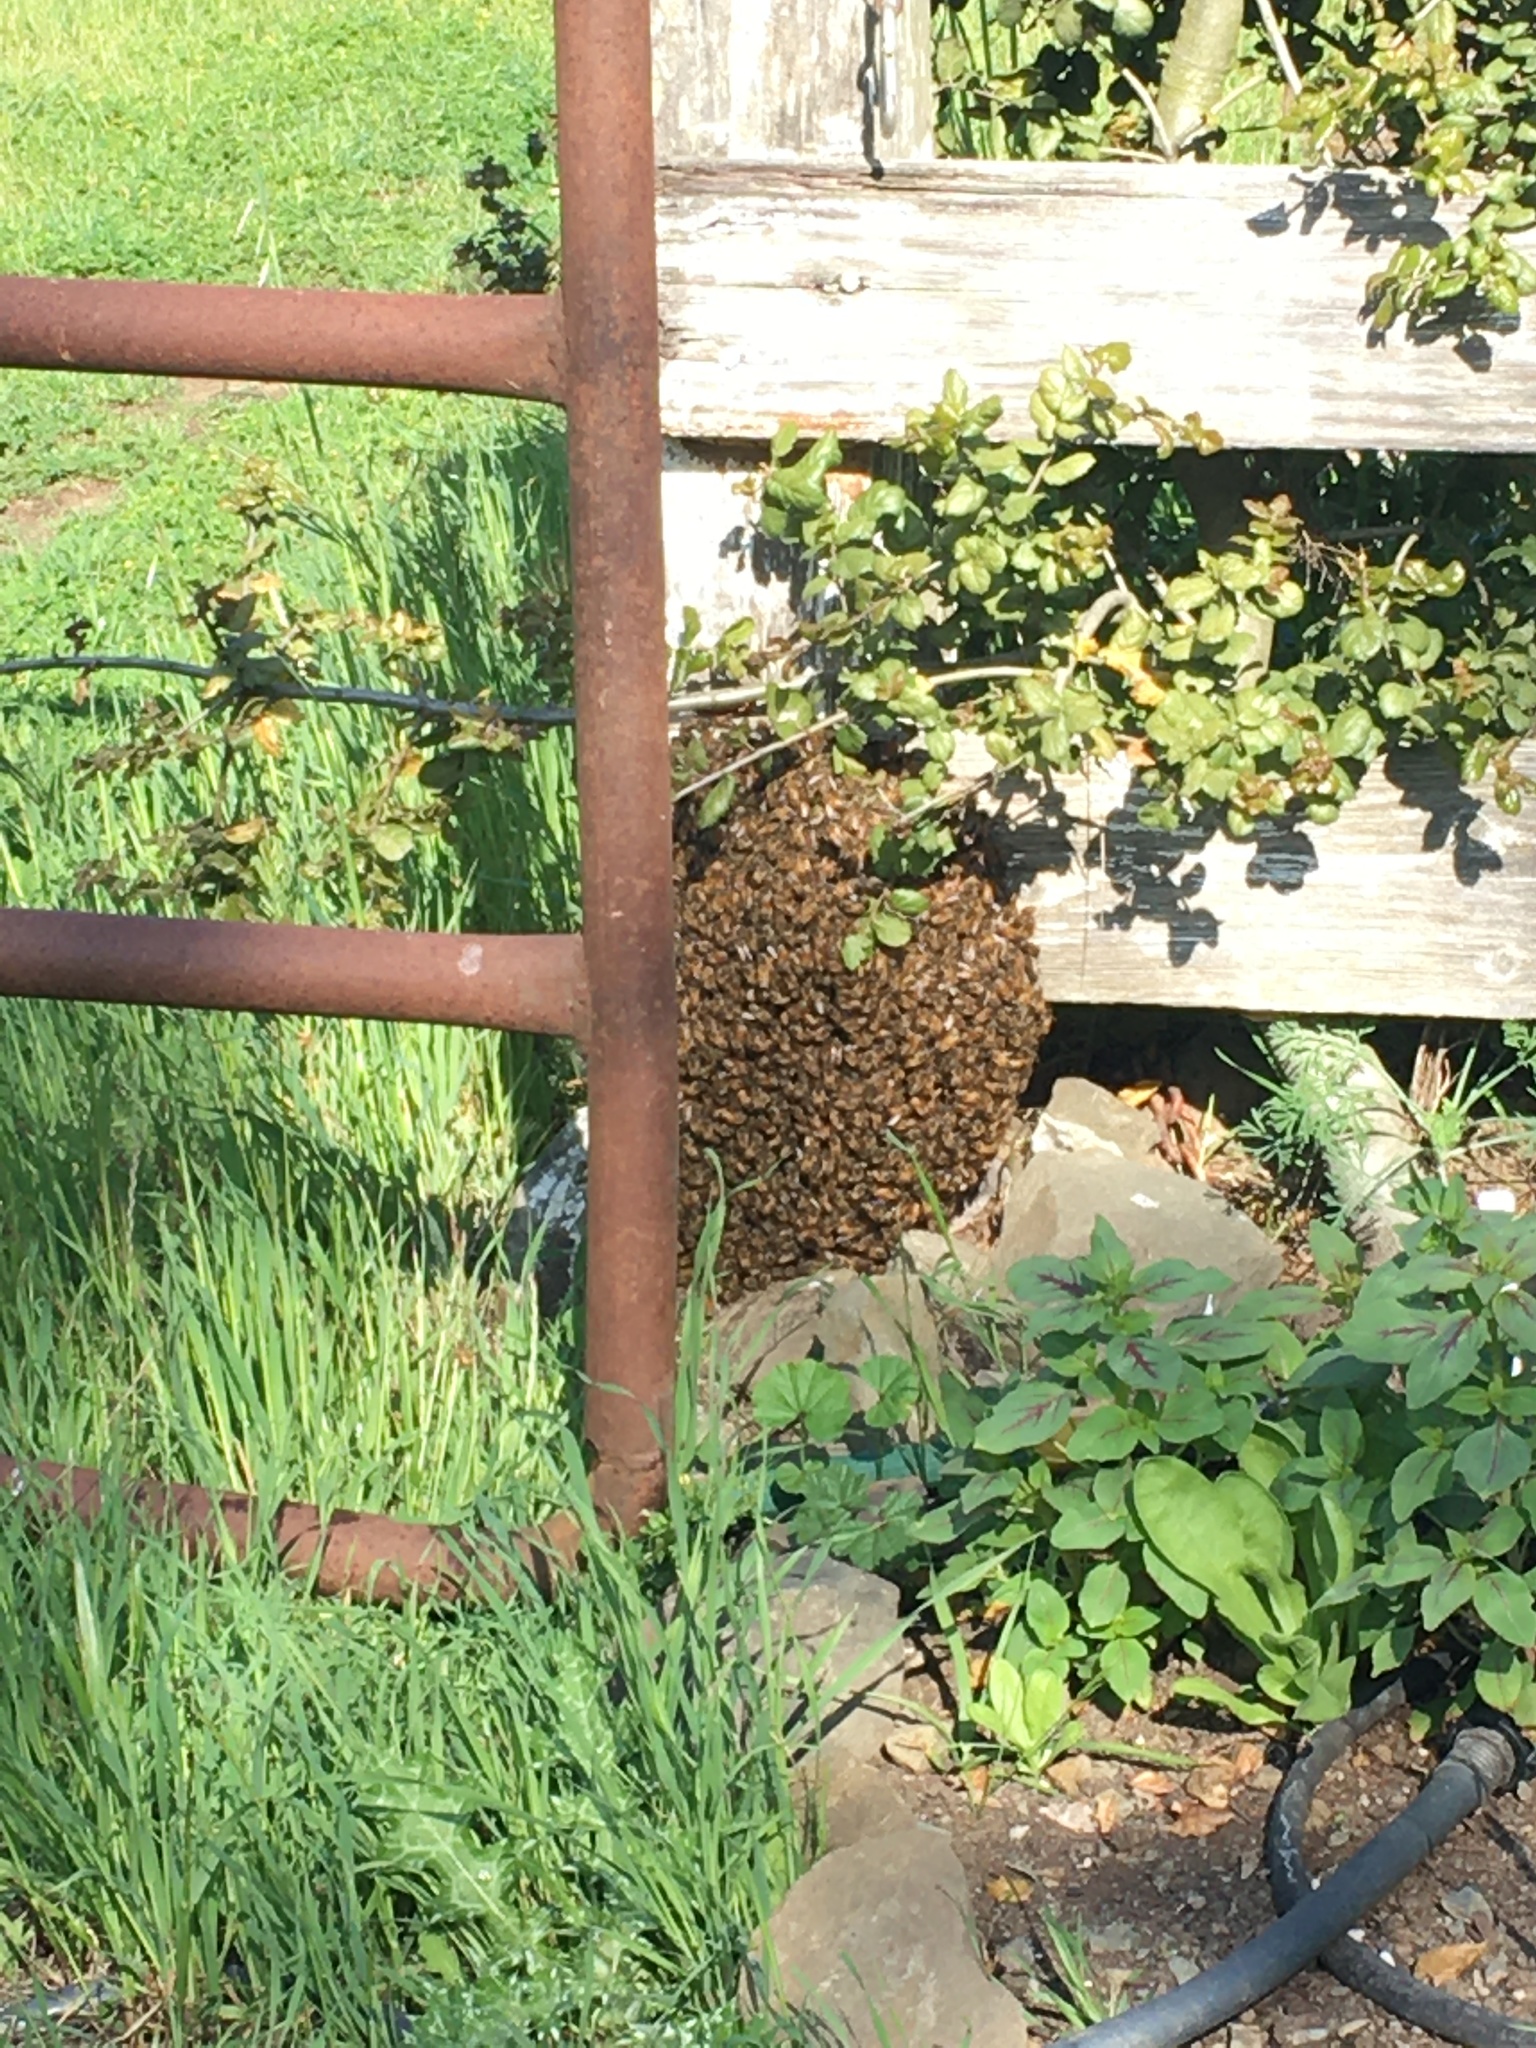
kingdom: Animalia
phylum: Arthropoda
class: Insecta
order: Hymenoptera
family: Apidae
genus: Apis
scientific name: Apis mellifera
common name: Honey bee
